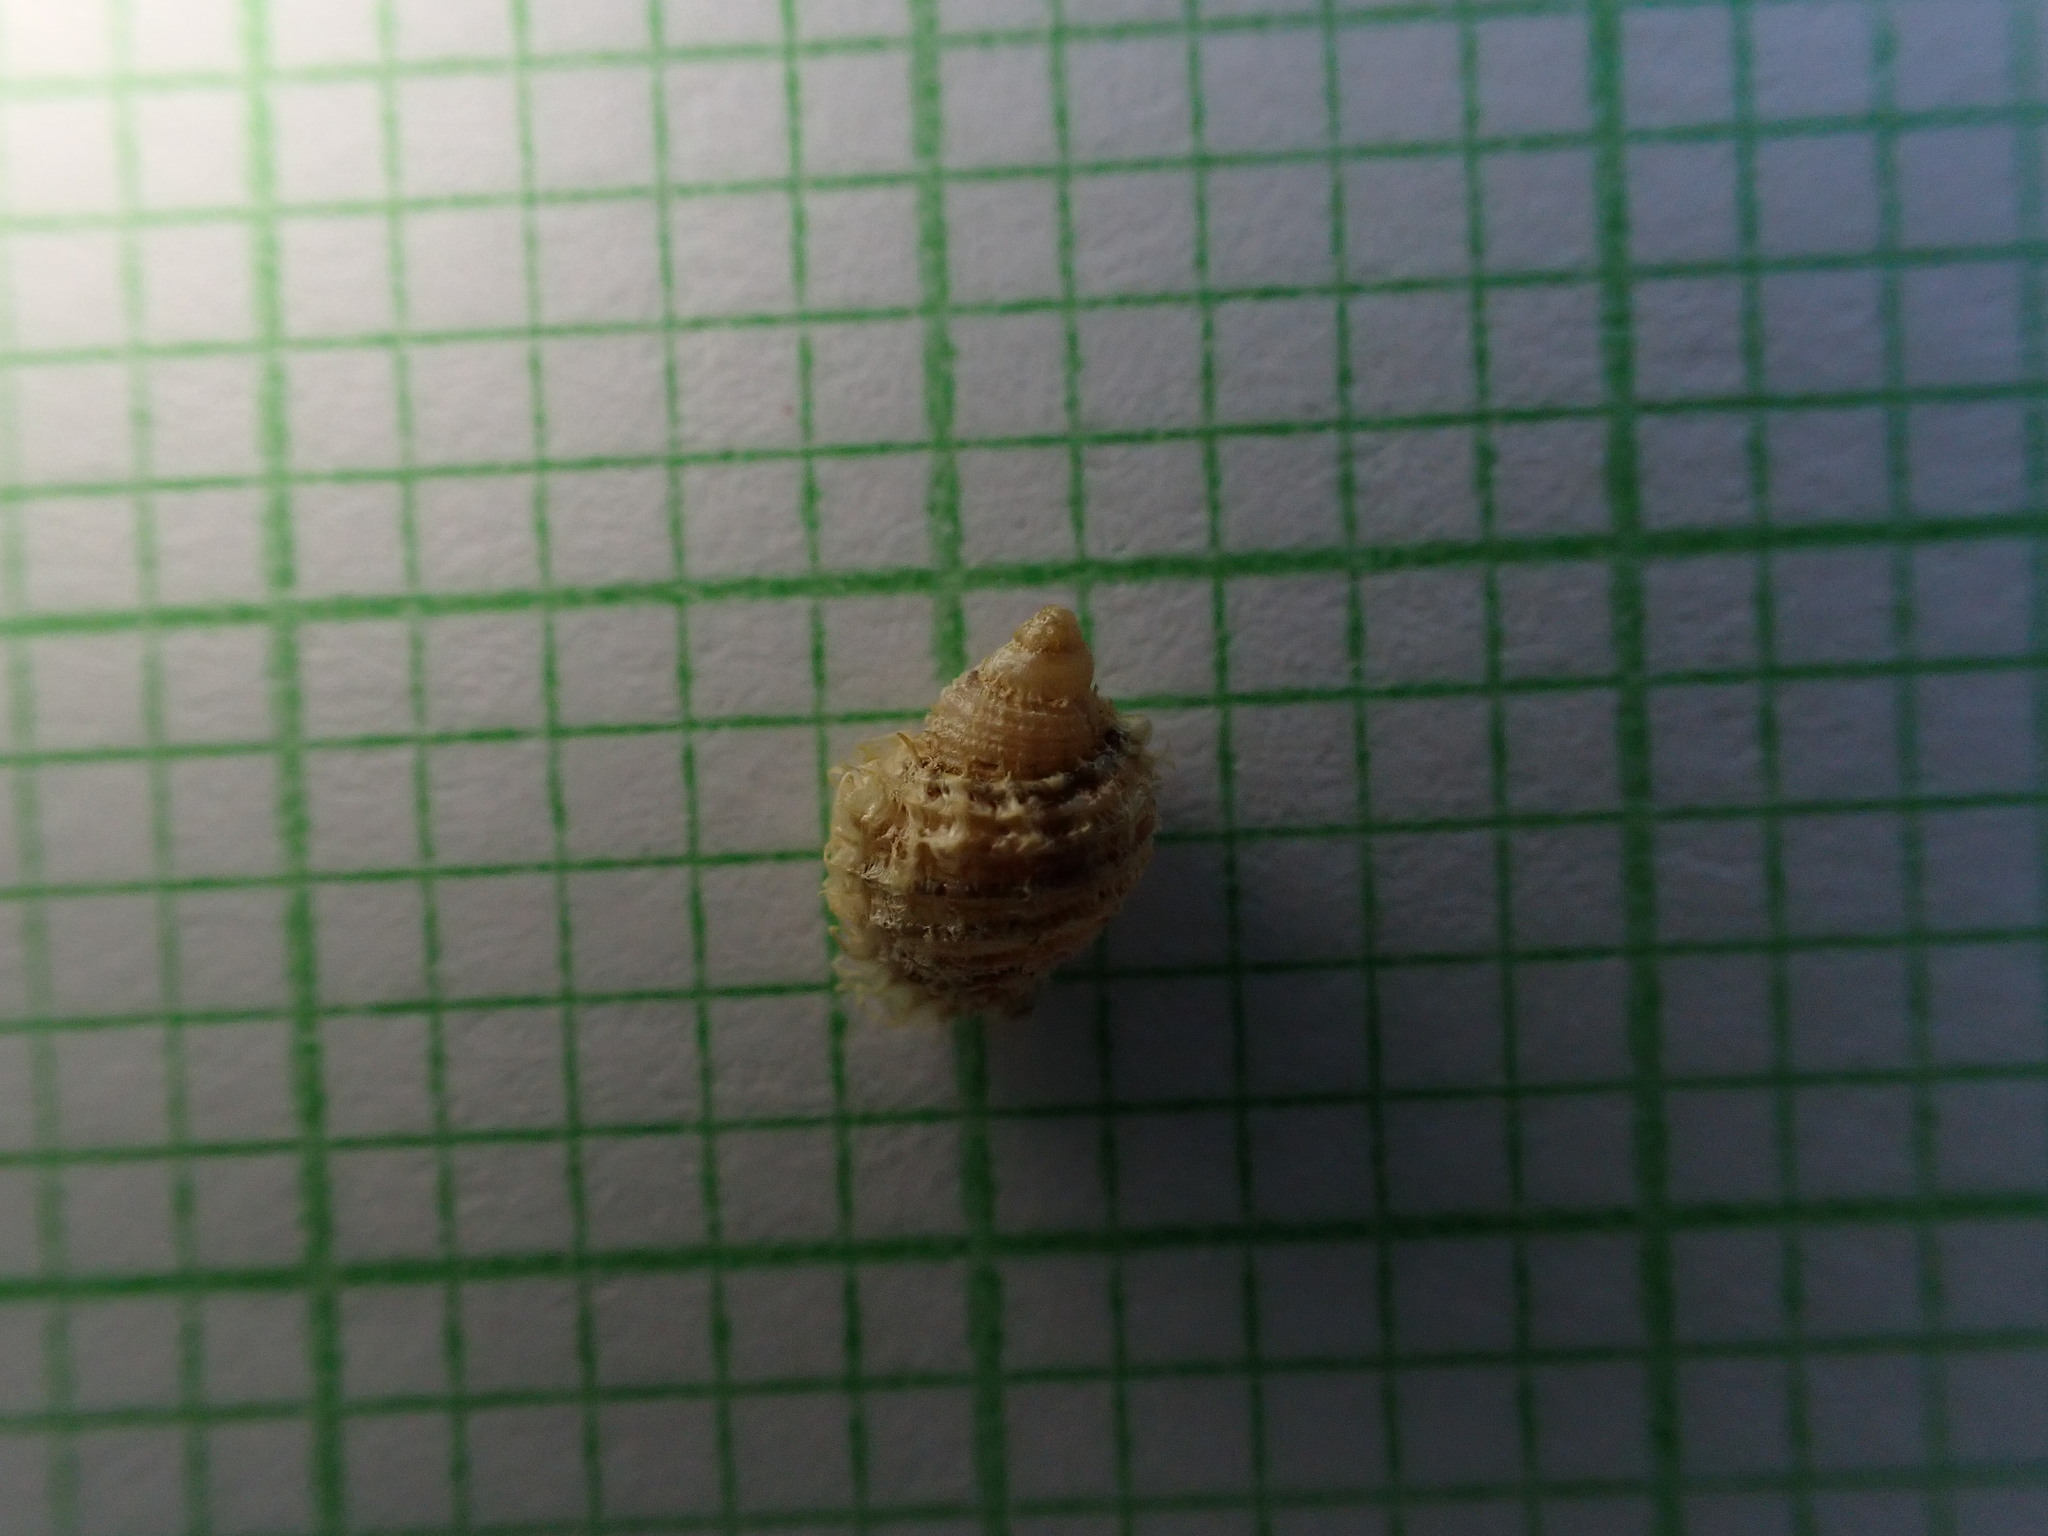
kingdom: Animalia
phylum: Mollusca
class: Gastropoda
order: Littorinimorpha
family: Cymatiidae
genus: Cabestana
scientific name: Cabestana spengleri
